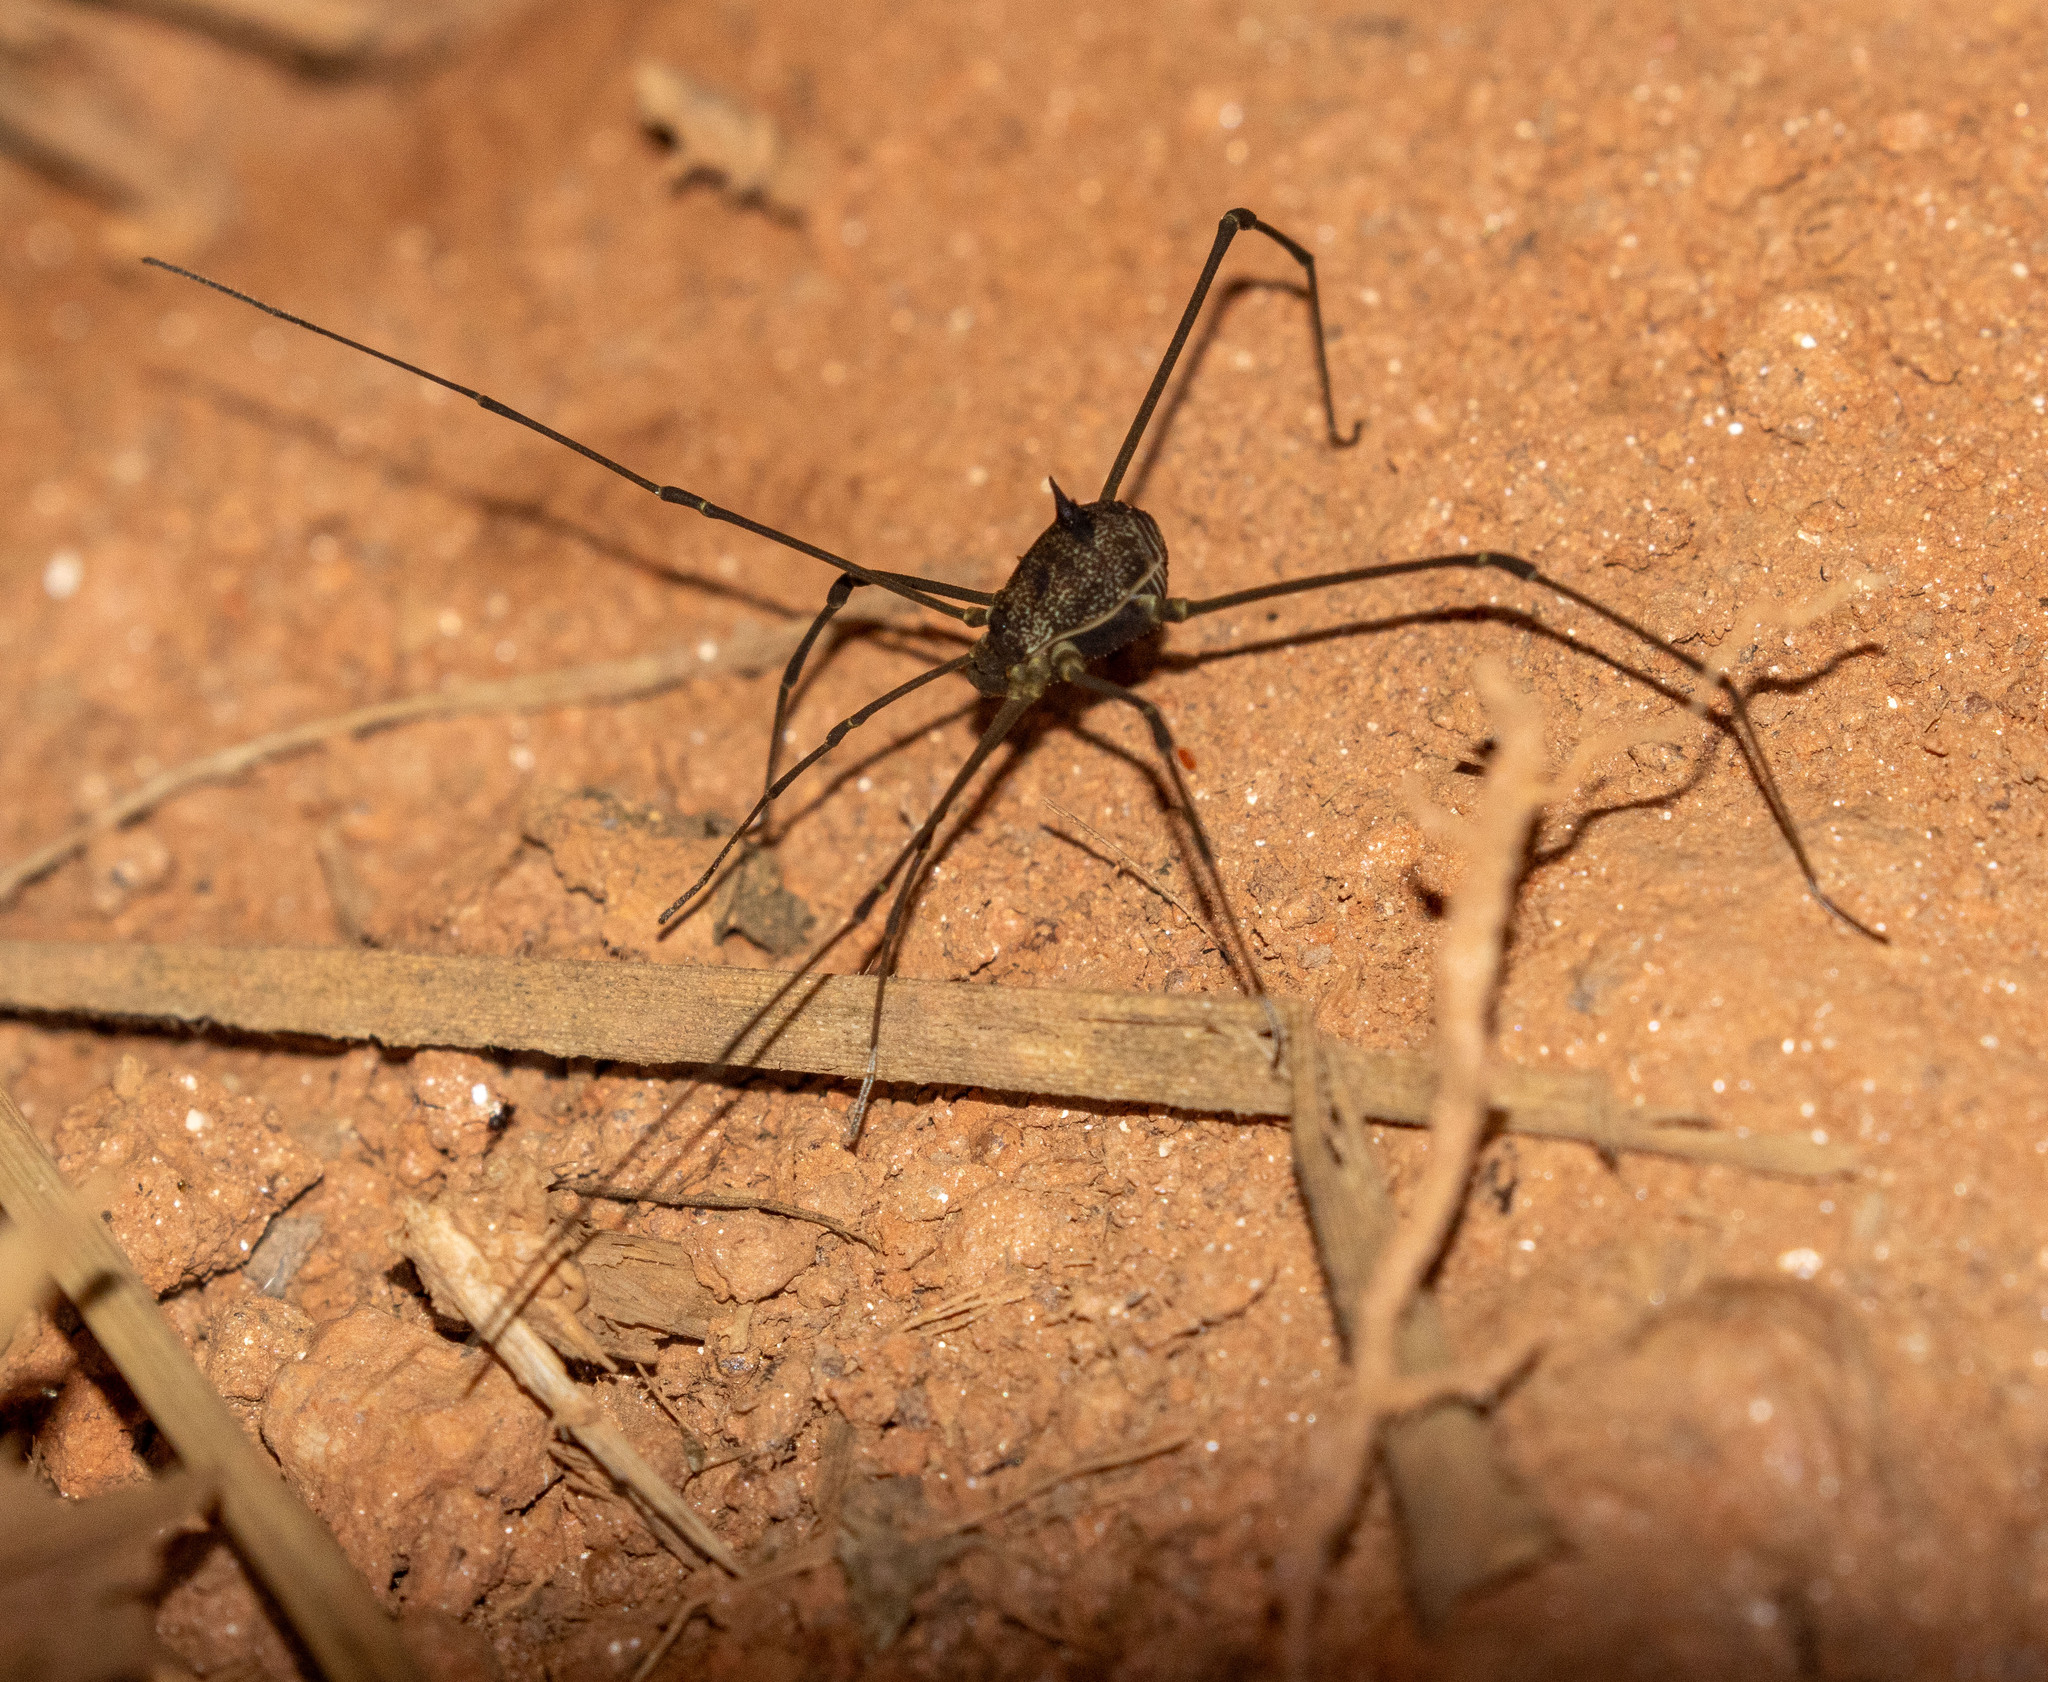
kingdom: Animalia
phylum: Arthropoda
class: Arachnida
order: Opiliones
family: Cosmetidae
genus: Gryne
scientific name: Gryne leprosa
